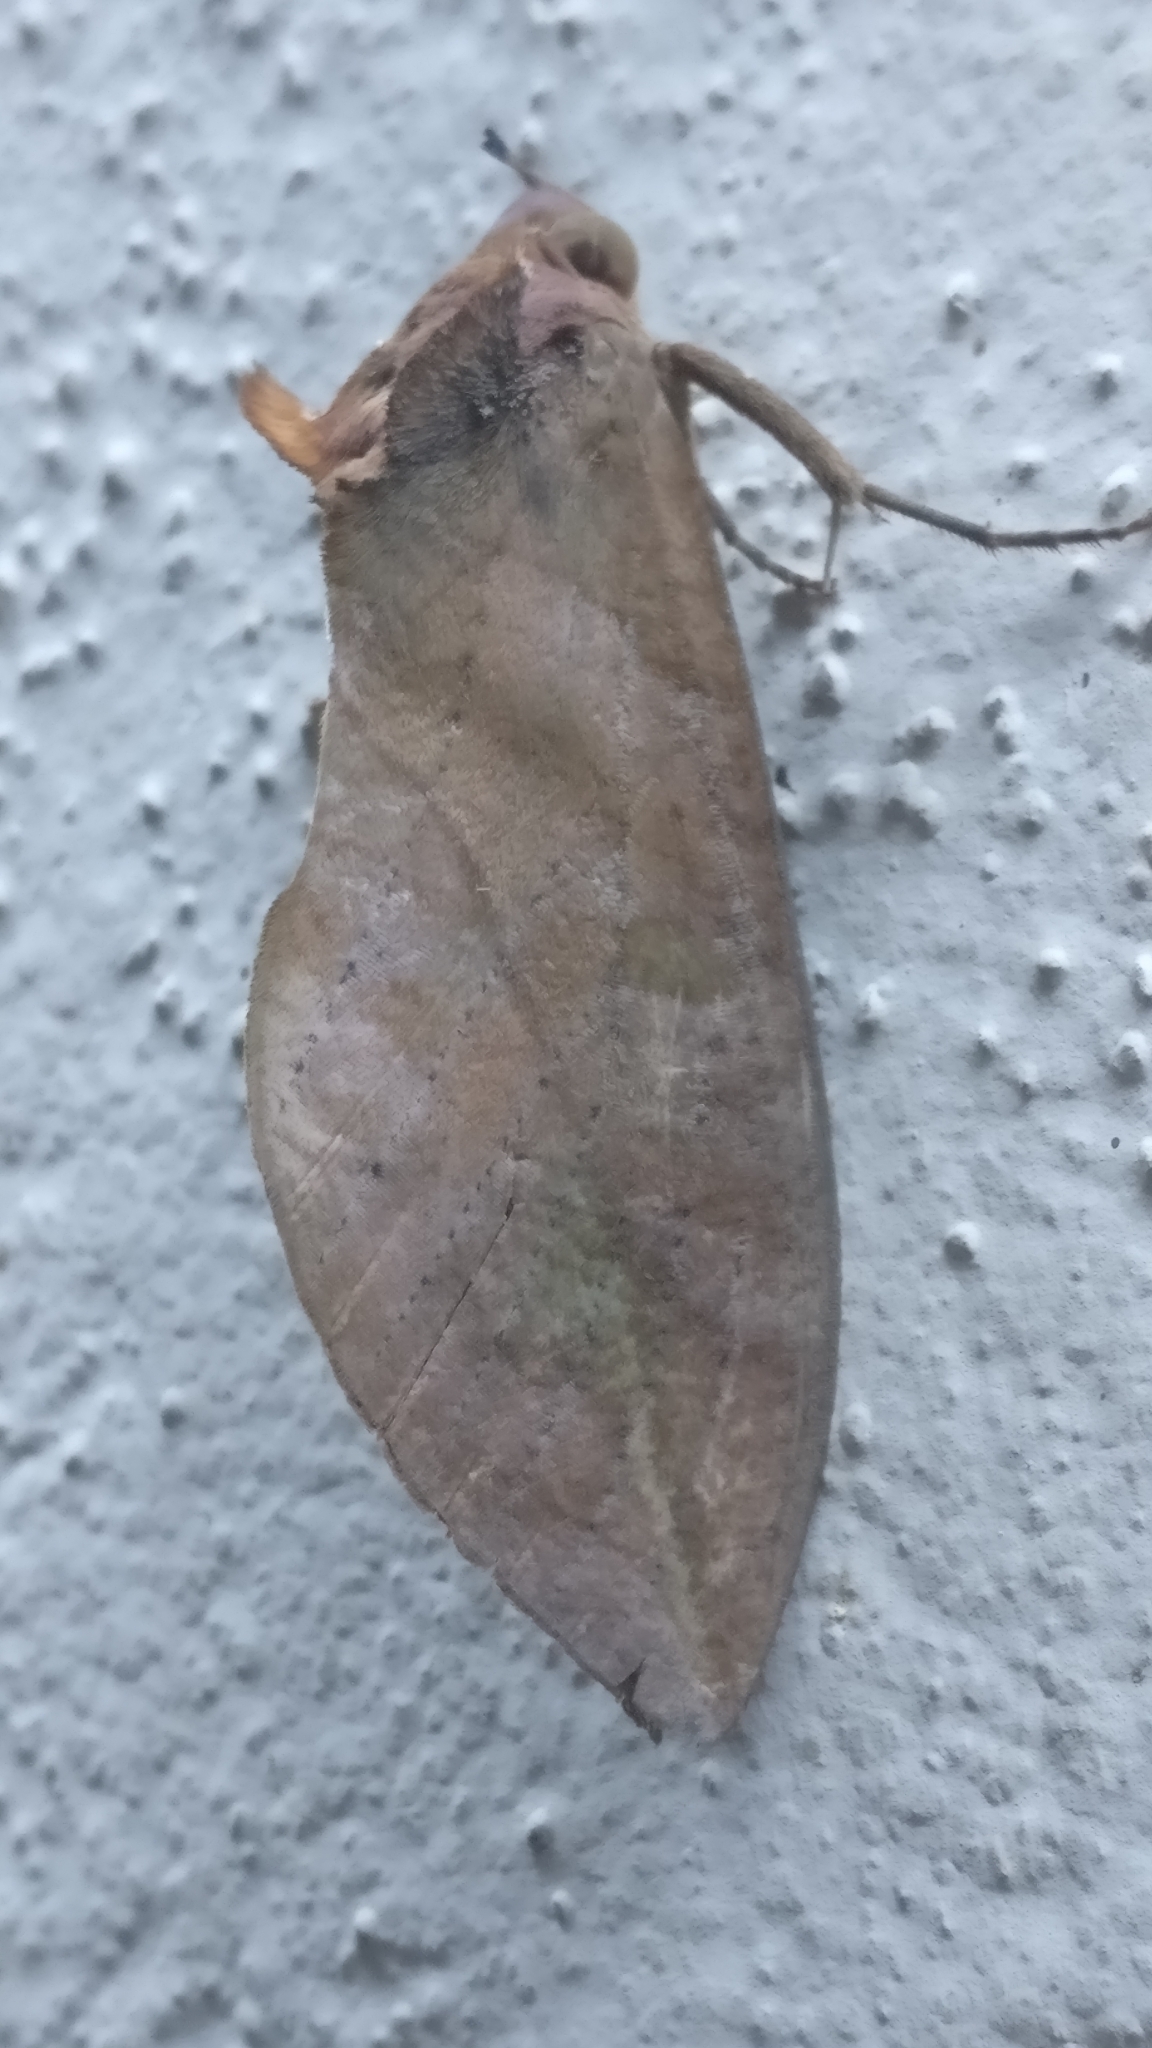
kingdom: Animalia
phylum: Arthropoda
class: Insecta
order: Lepidoptera
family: Erebidae
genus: Eudocima
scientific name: Eudocima phalonia
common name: Wasp
